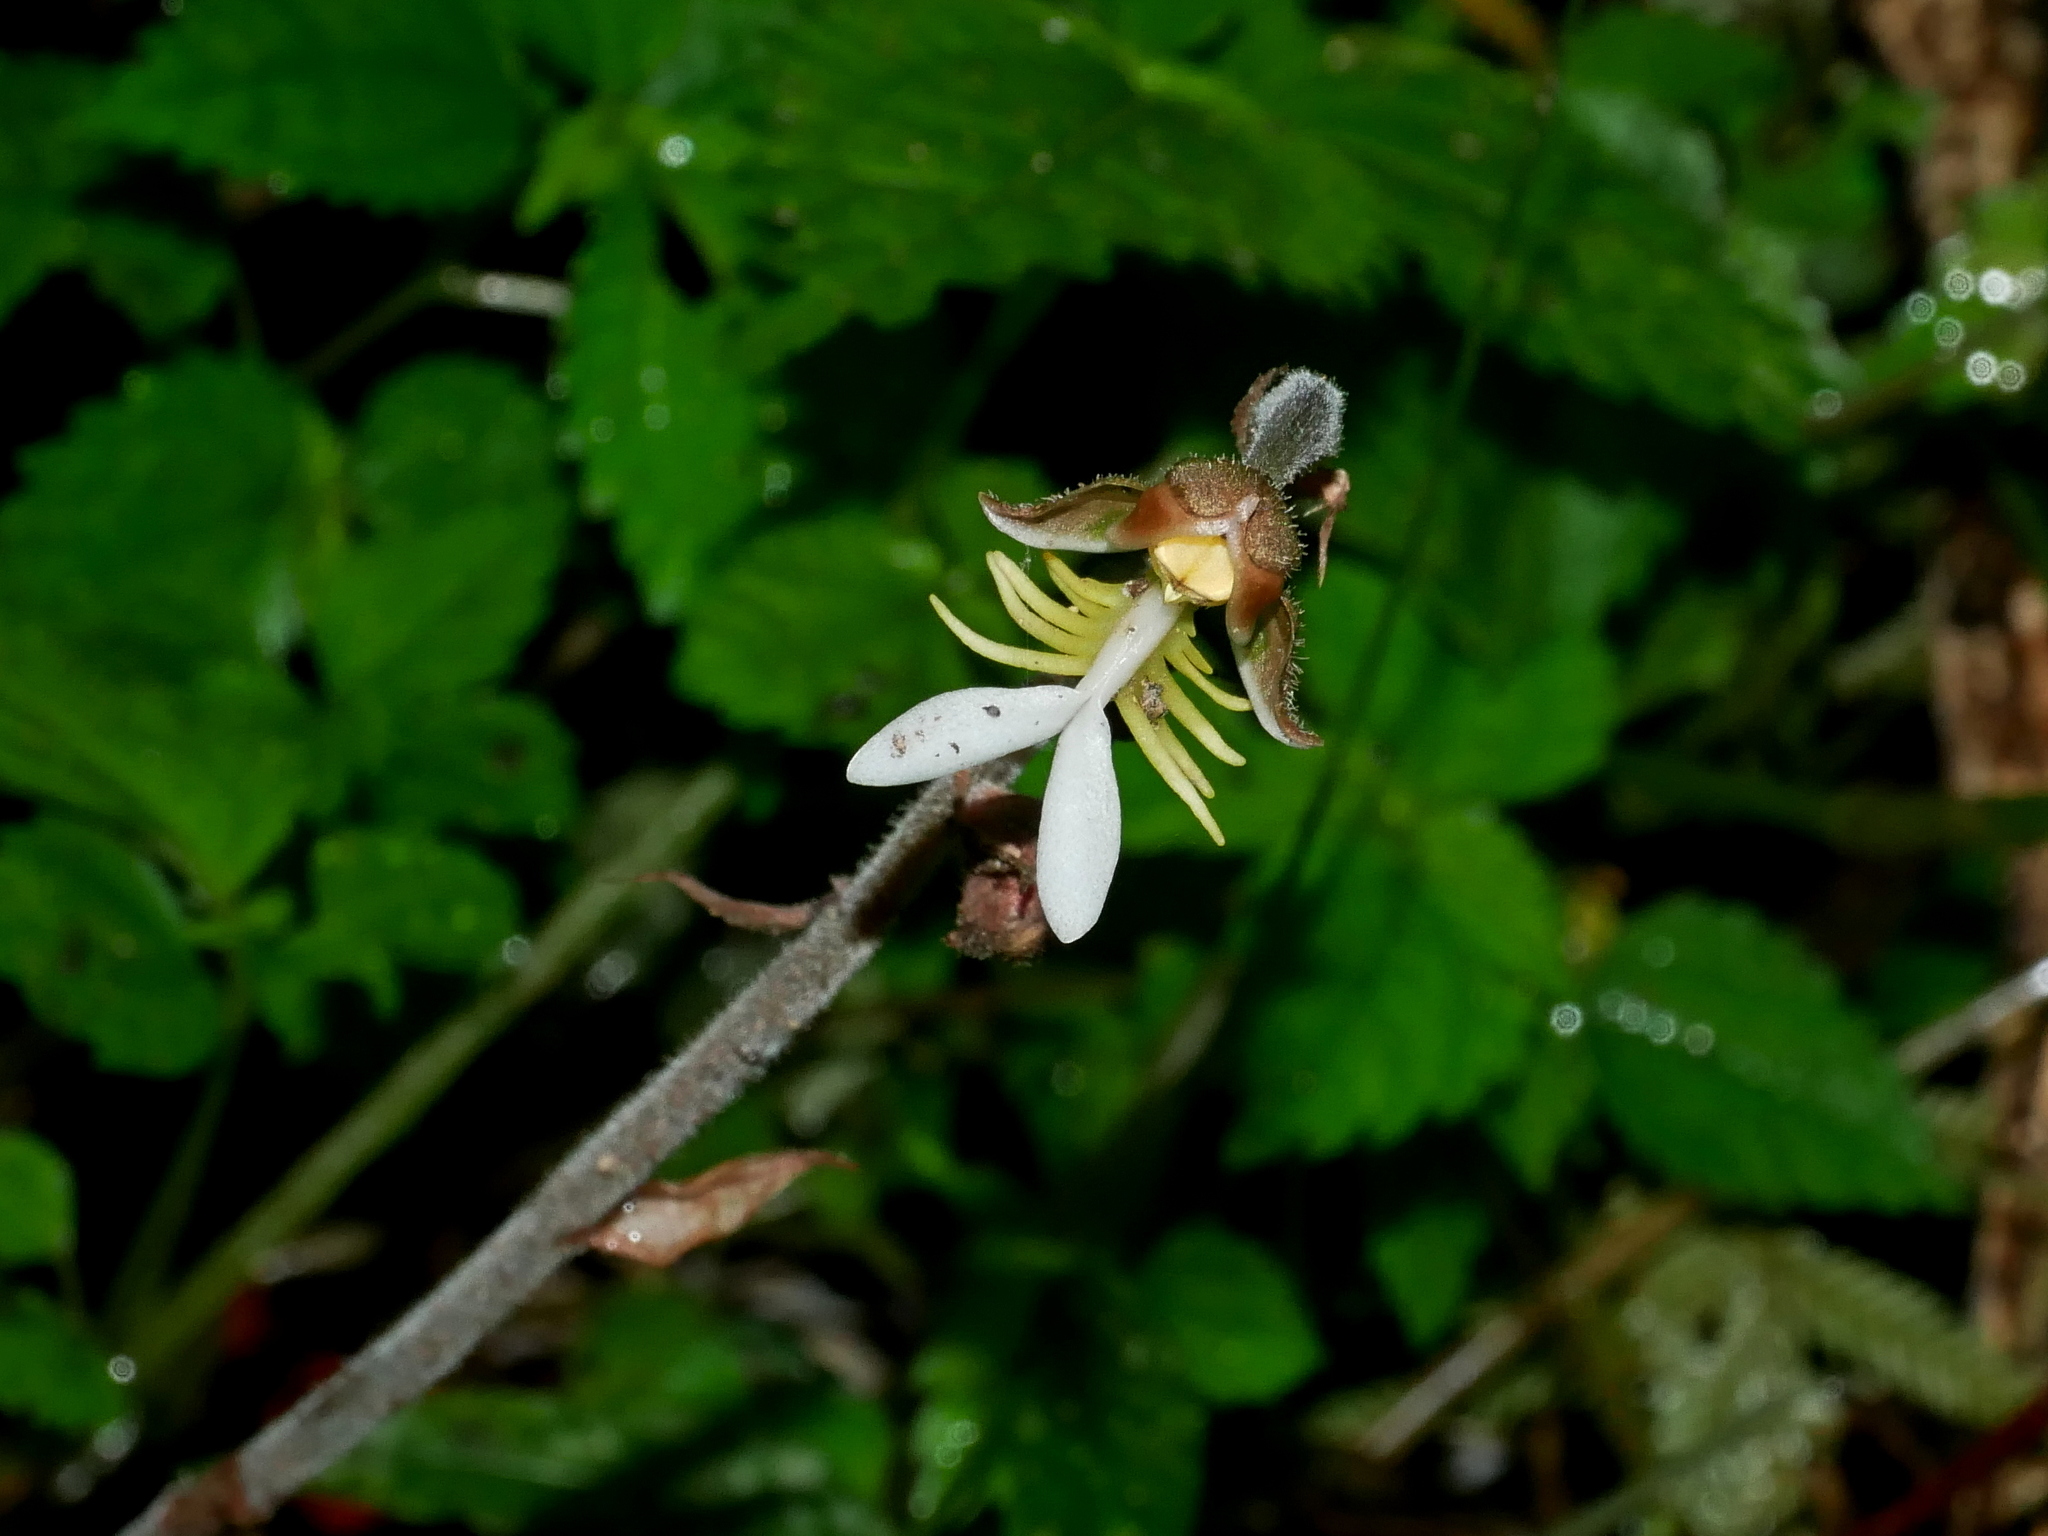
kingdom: Plantae
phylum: Tracheophyta
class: Liliopsida
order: Asparagales
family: Orchidaceae
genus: Anoectochilus
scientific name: Anoectochilus formosanus
